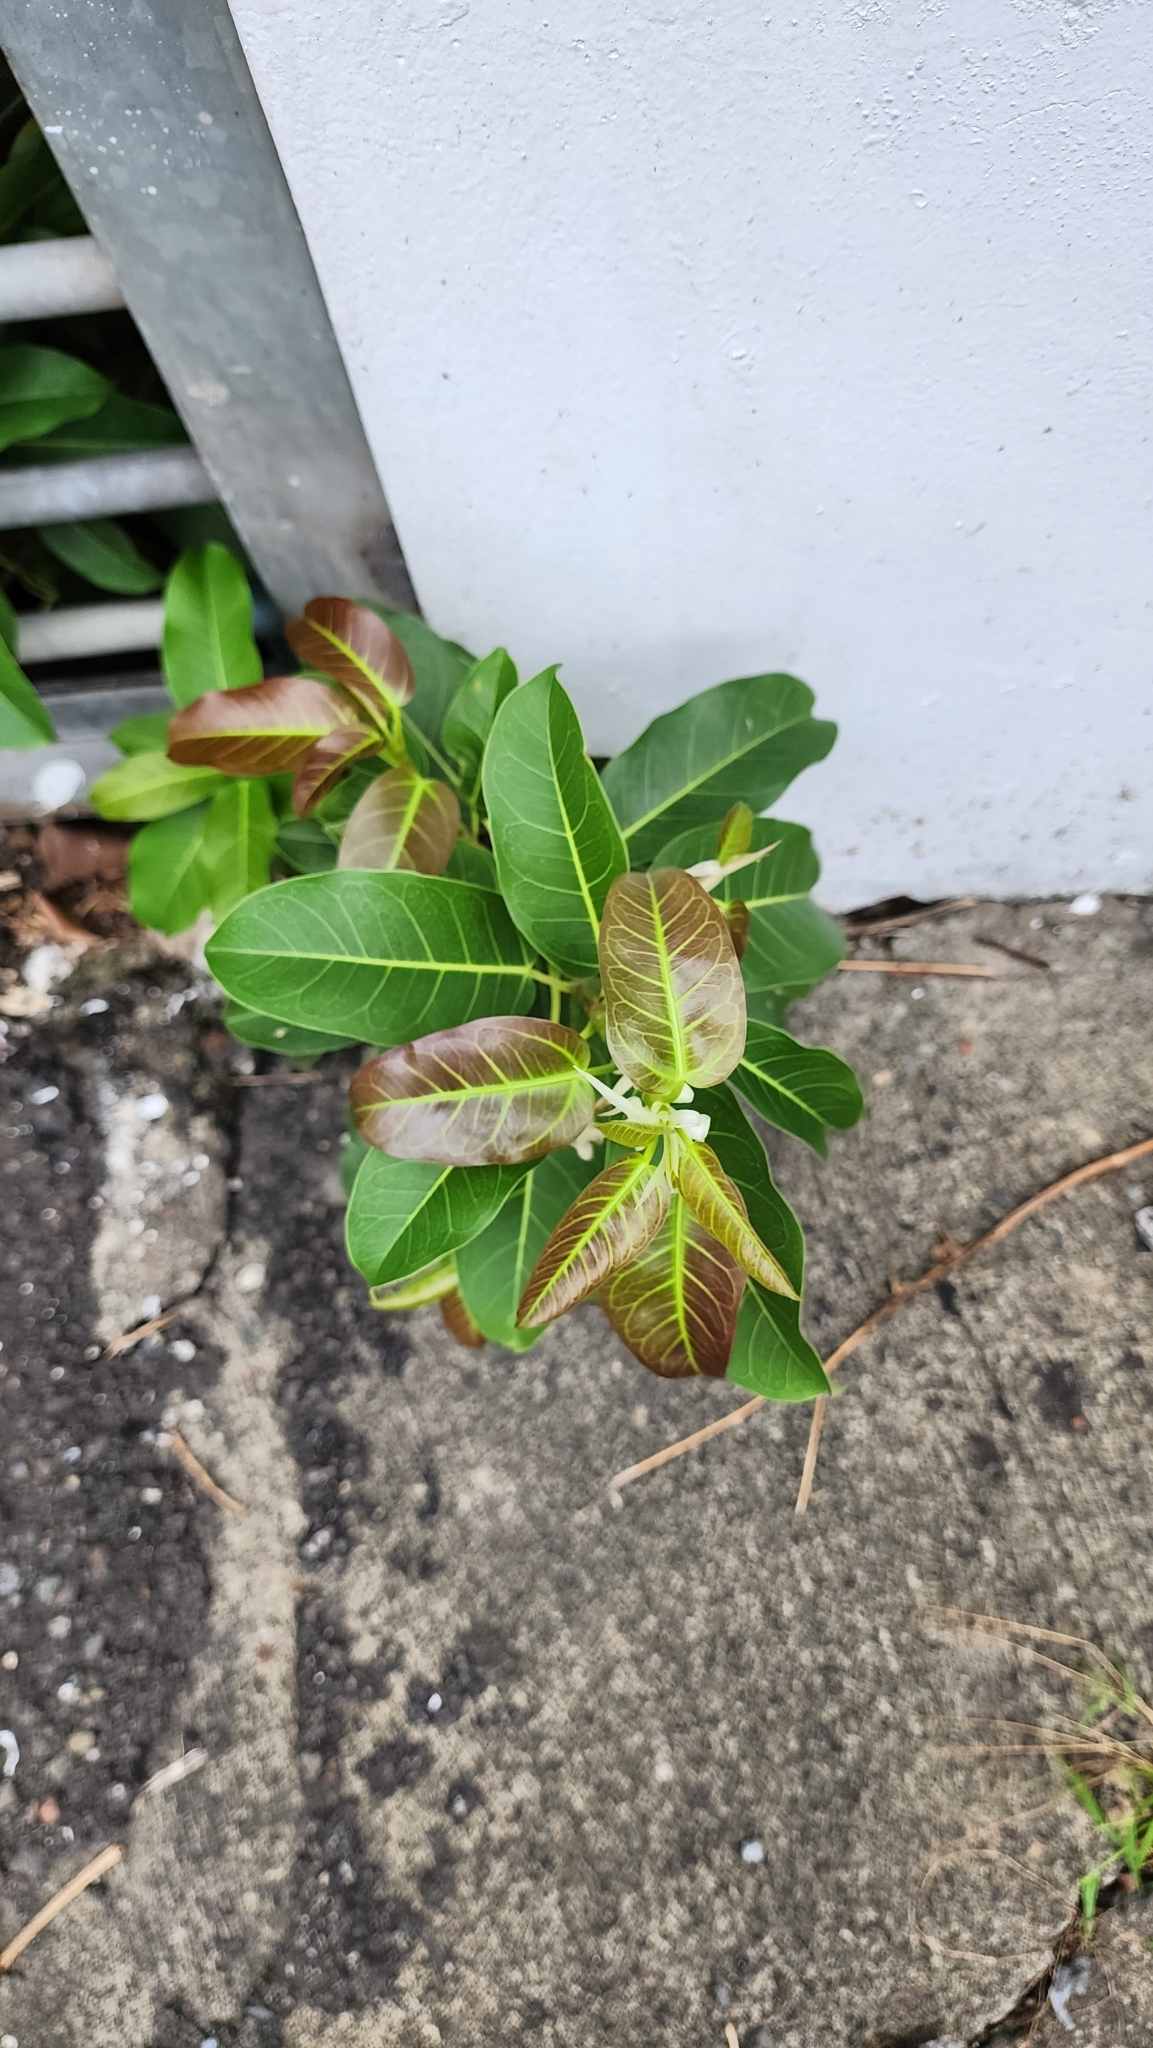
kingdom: Plantae
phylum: Tracheophyta
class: Magnoliopsida
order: Rosales
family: Moraceae
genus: Ficus
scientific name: Ficus subpisocarpa
